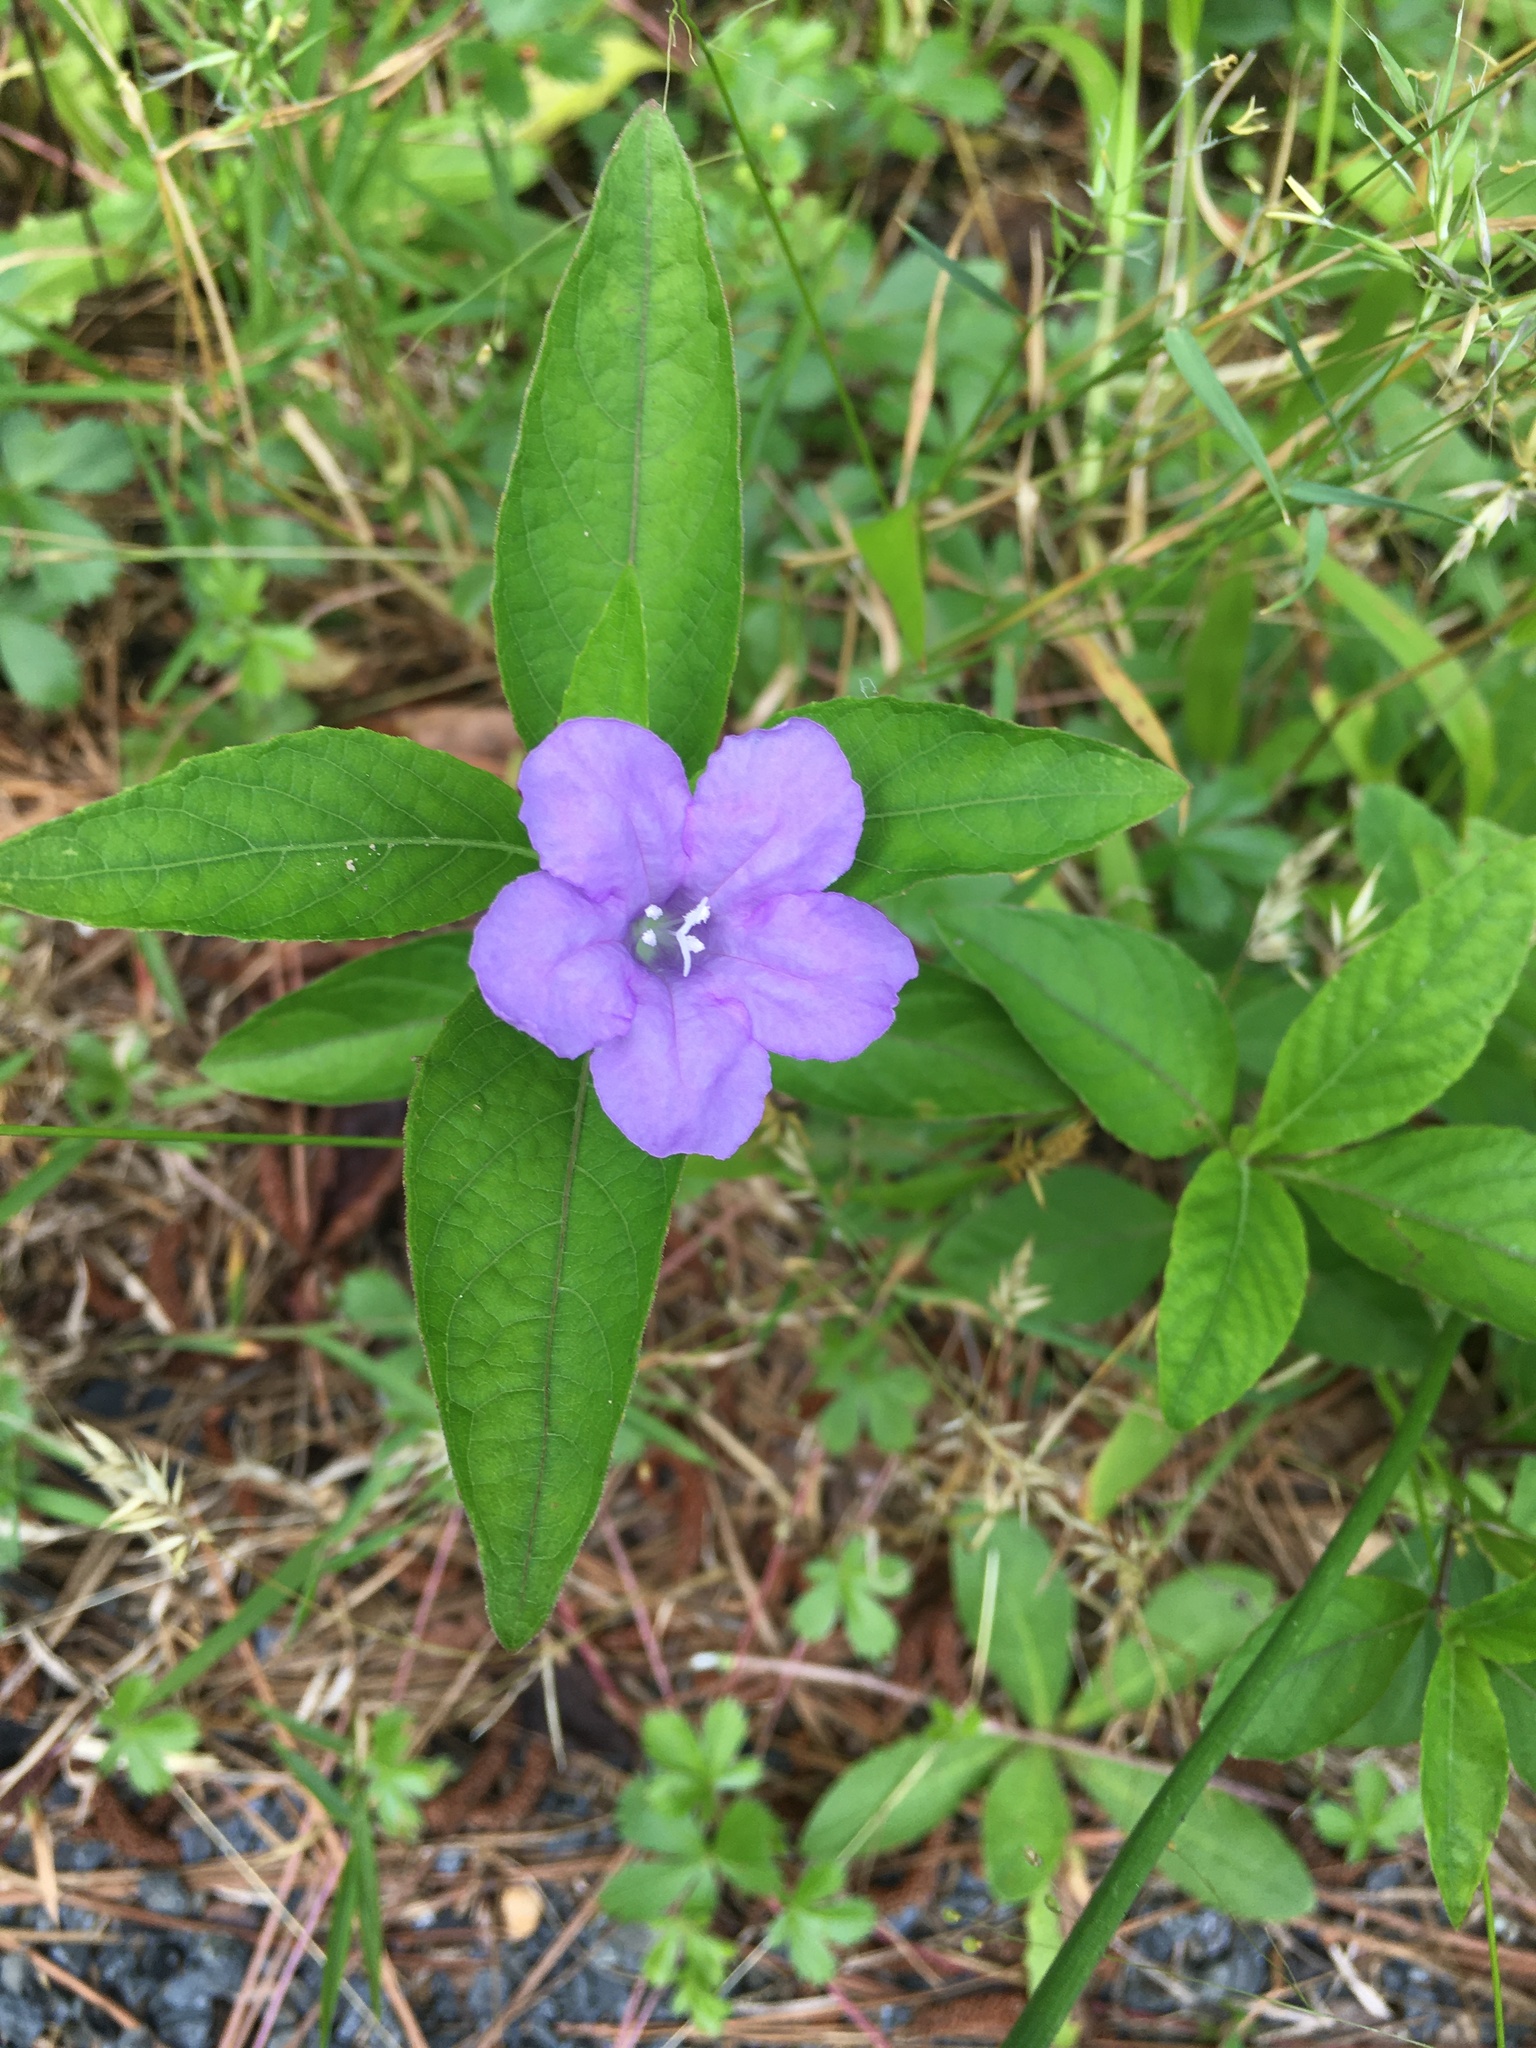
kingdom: Plantae
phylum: Tracheophyta
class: Magnoliopsida
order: Lamiales
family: Acanthaceae
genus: Ruellia
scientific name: Ruellia caroliniensis
